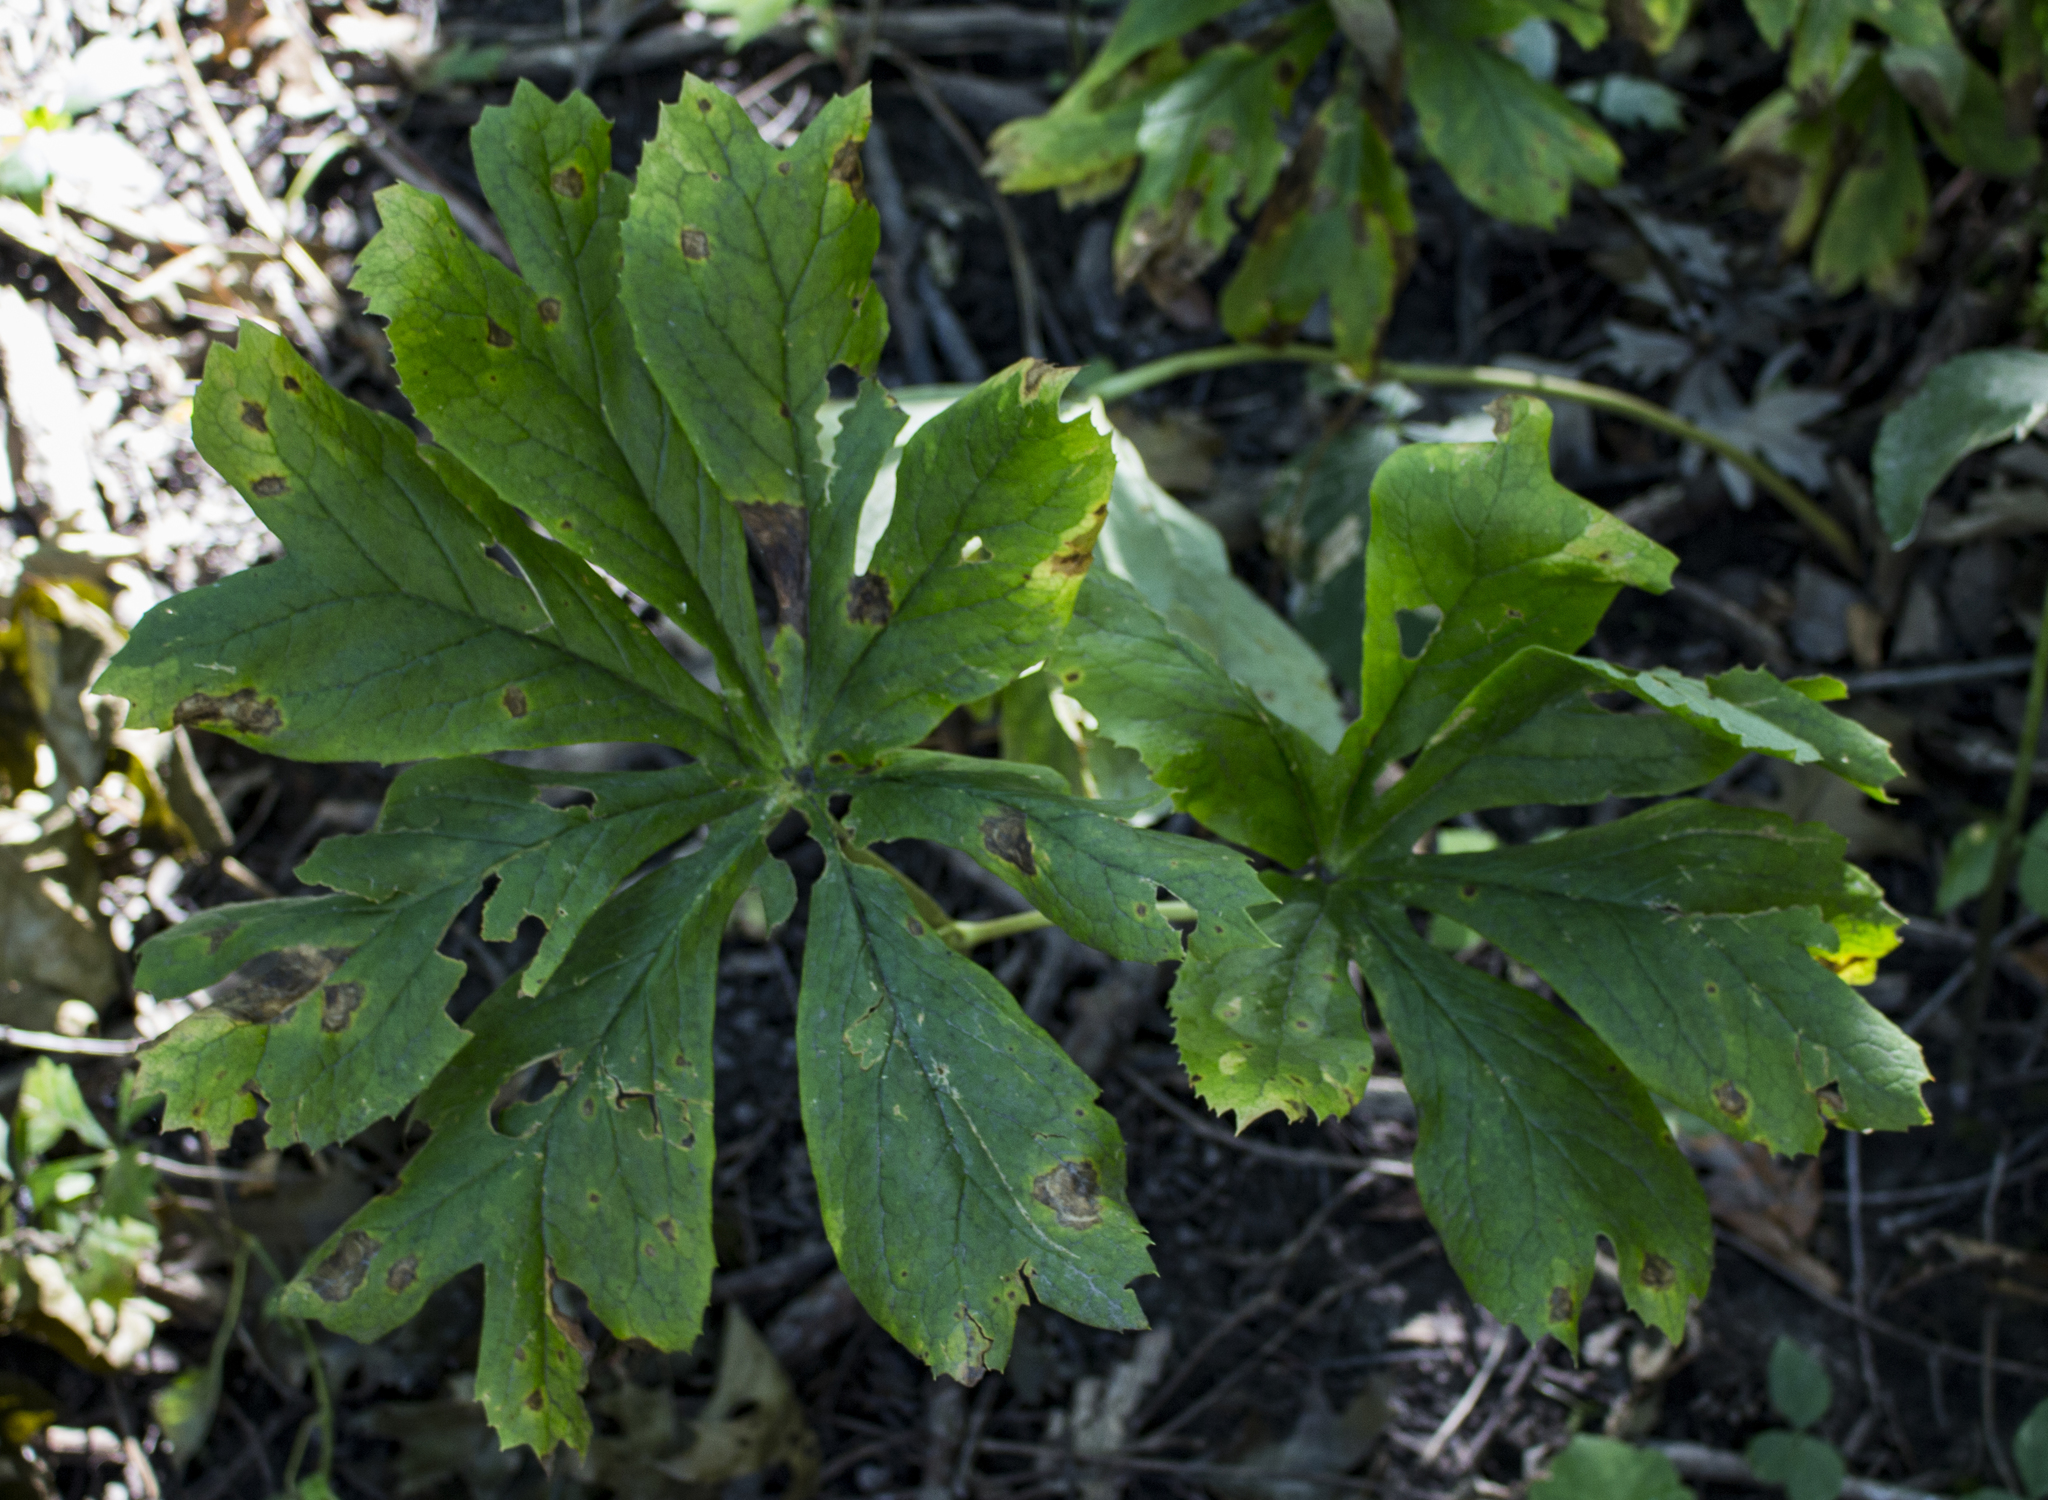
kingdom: Plantae
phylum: Tracheophyta
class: Magnoliopsida
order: Ranunculales
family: Berberidaceae
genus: Podophyllum
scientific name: Podophyllum peltatum
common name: Wild mandrake
